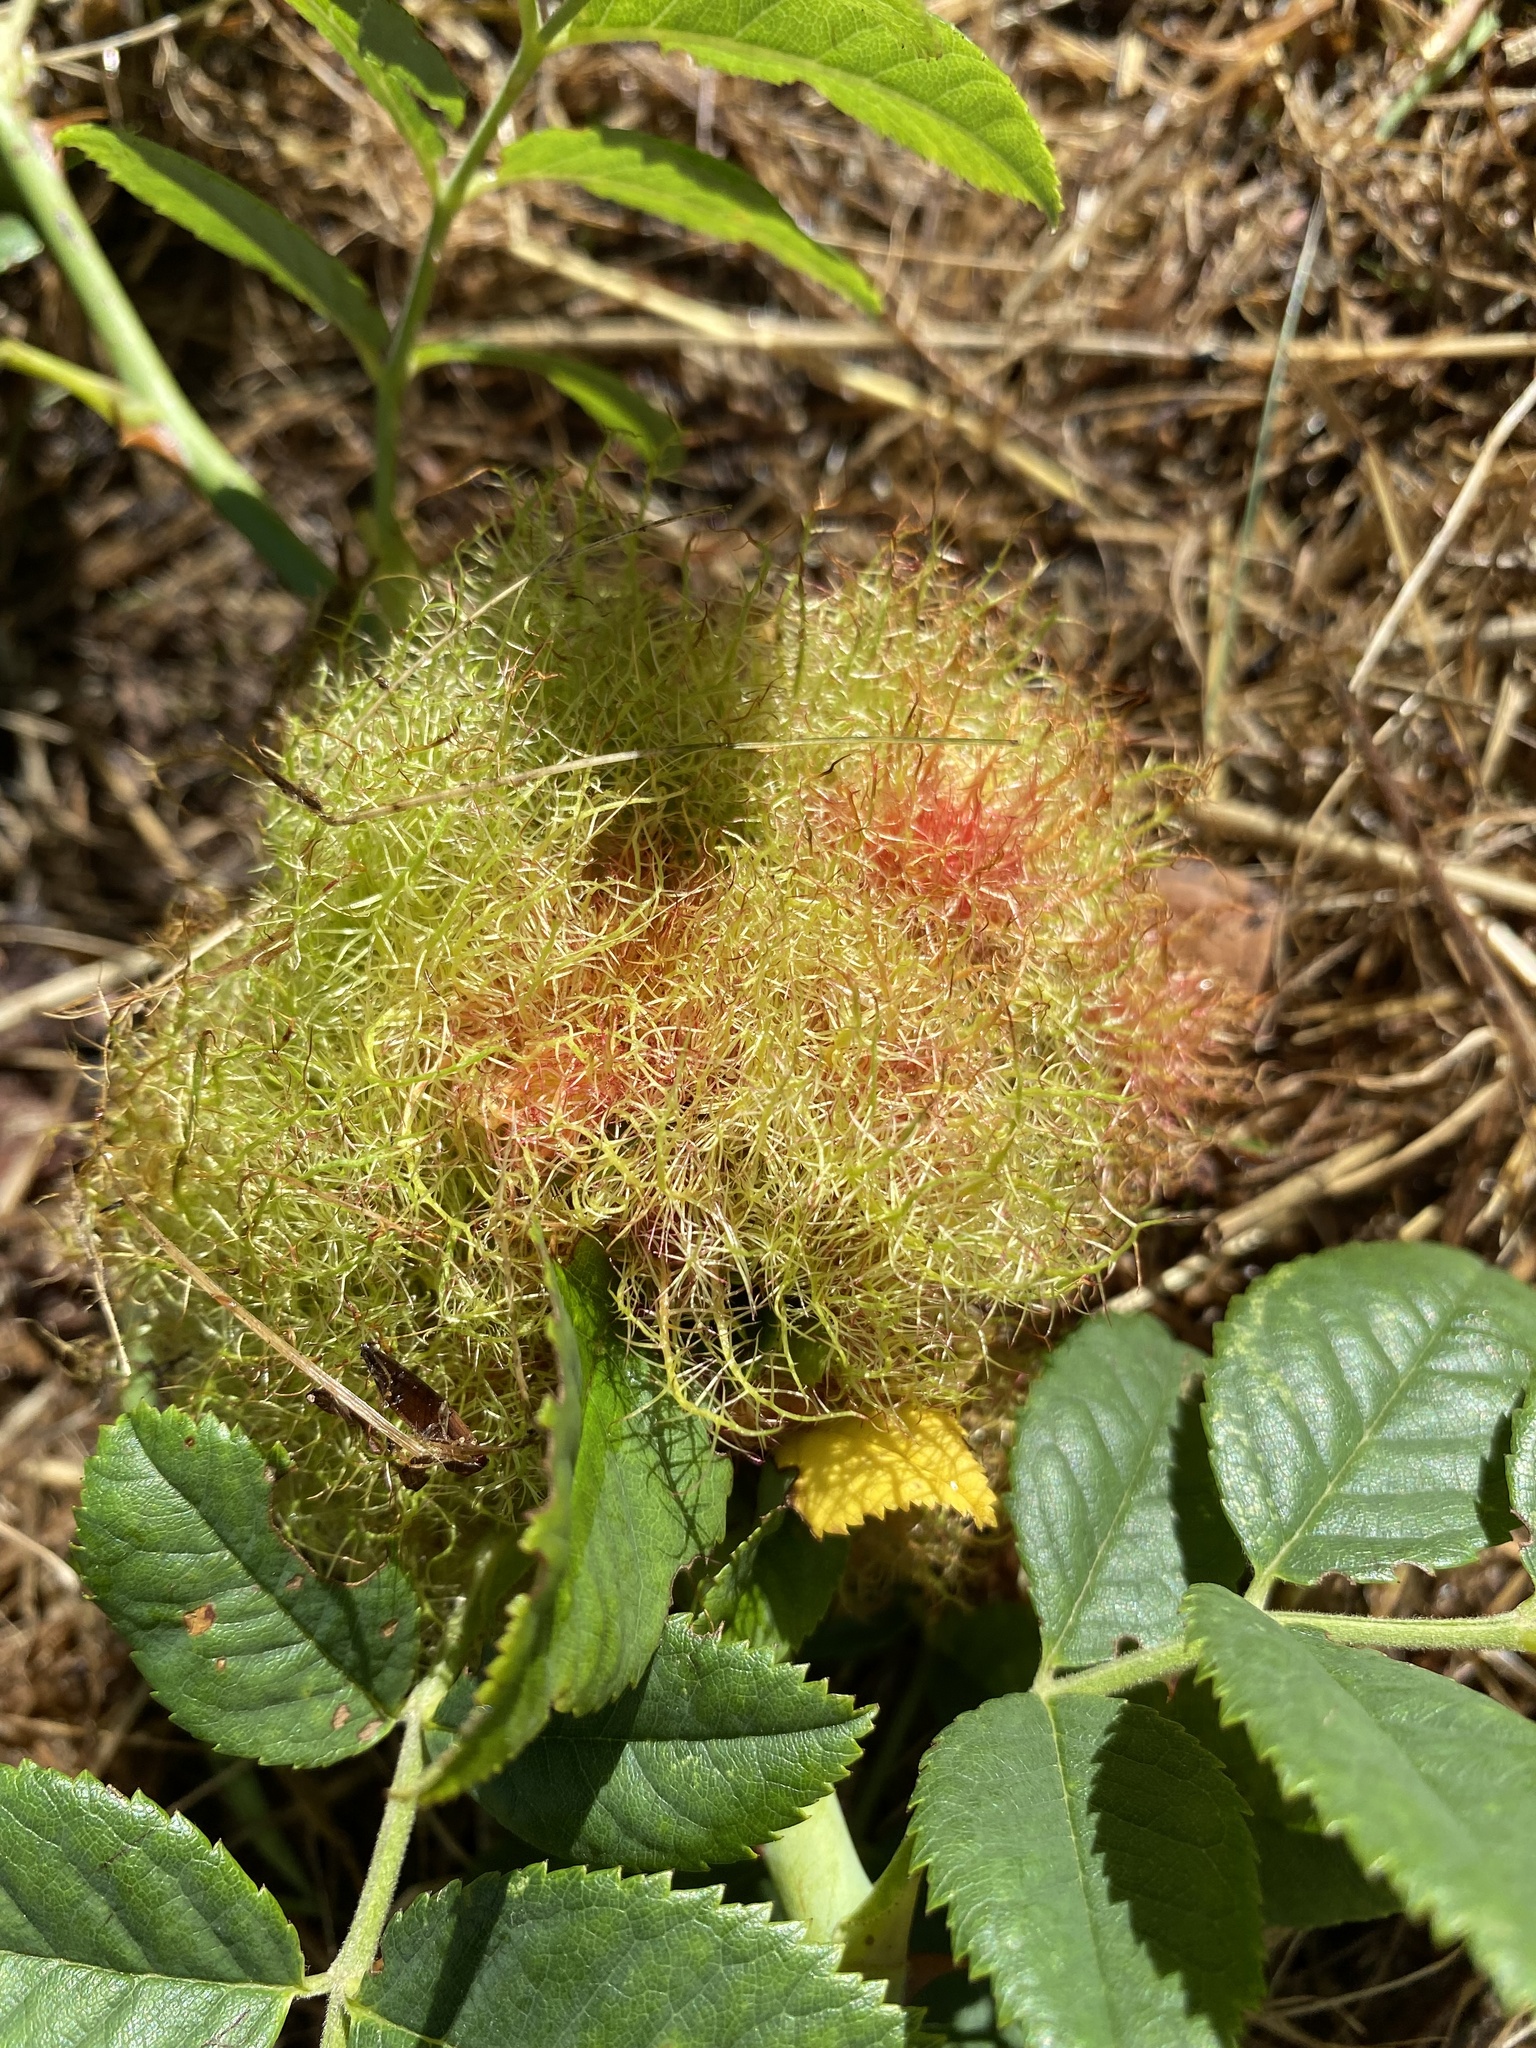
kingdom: Animalia
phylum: Arthropoda
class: Insecta
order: Hymenoptera
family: Cynipidae
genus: Diplolepis
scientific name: Diplolepis rosae
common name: Bedeguar gall
